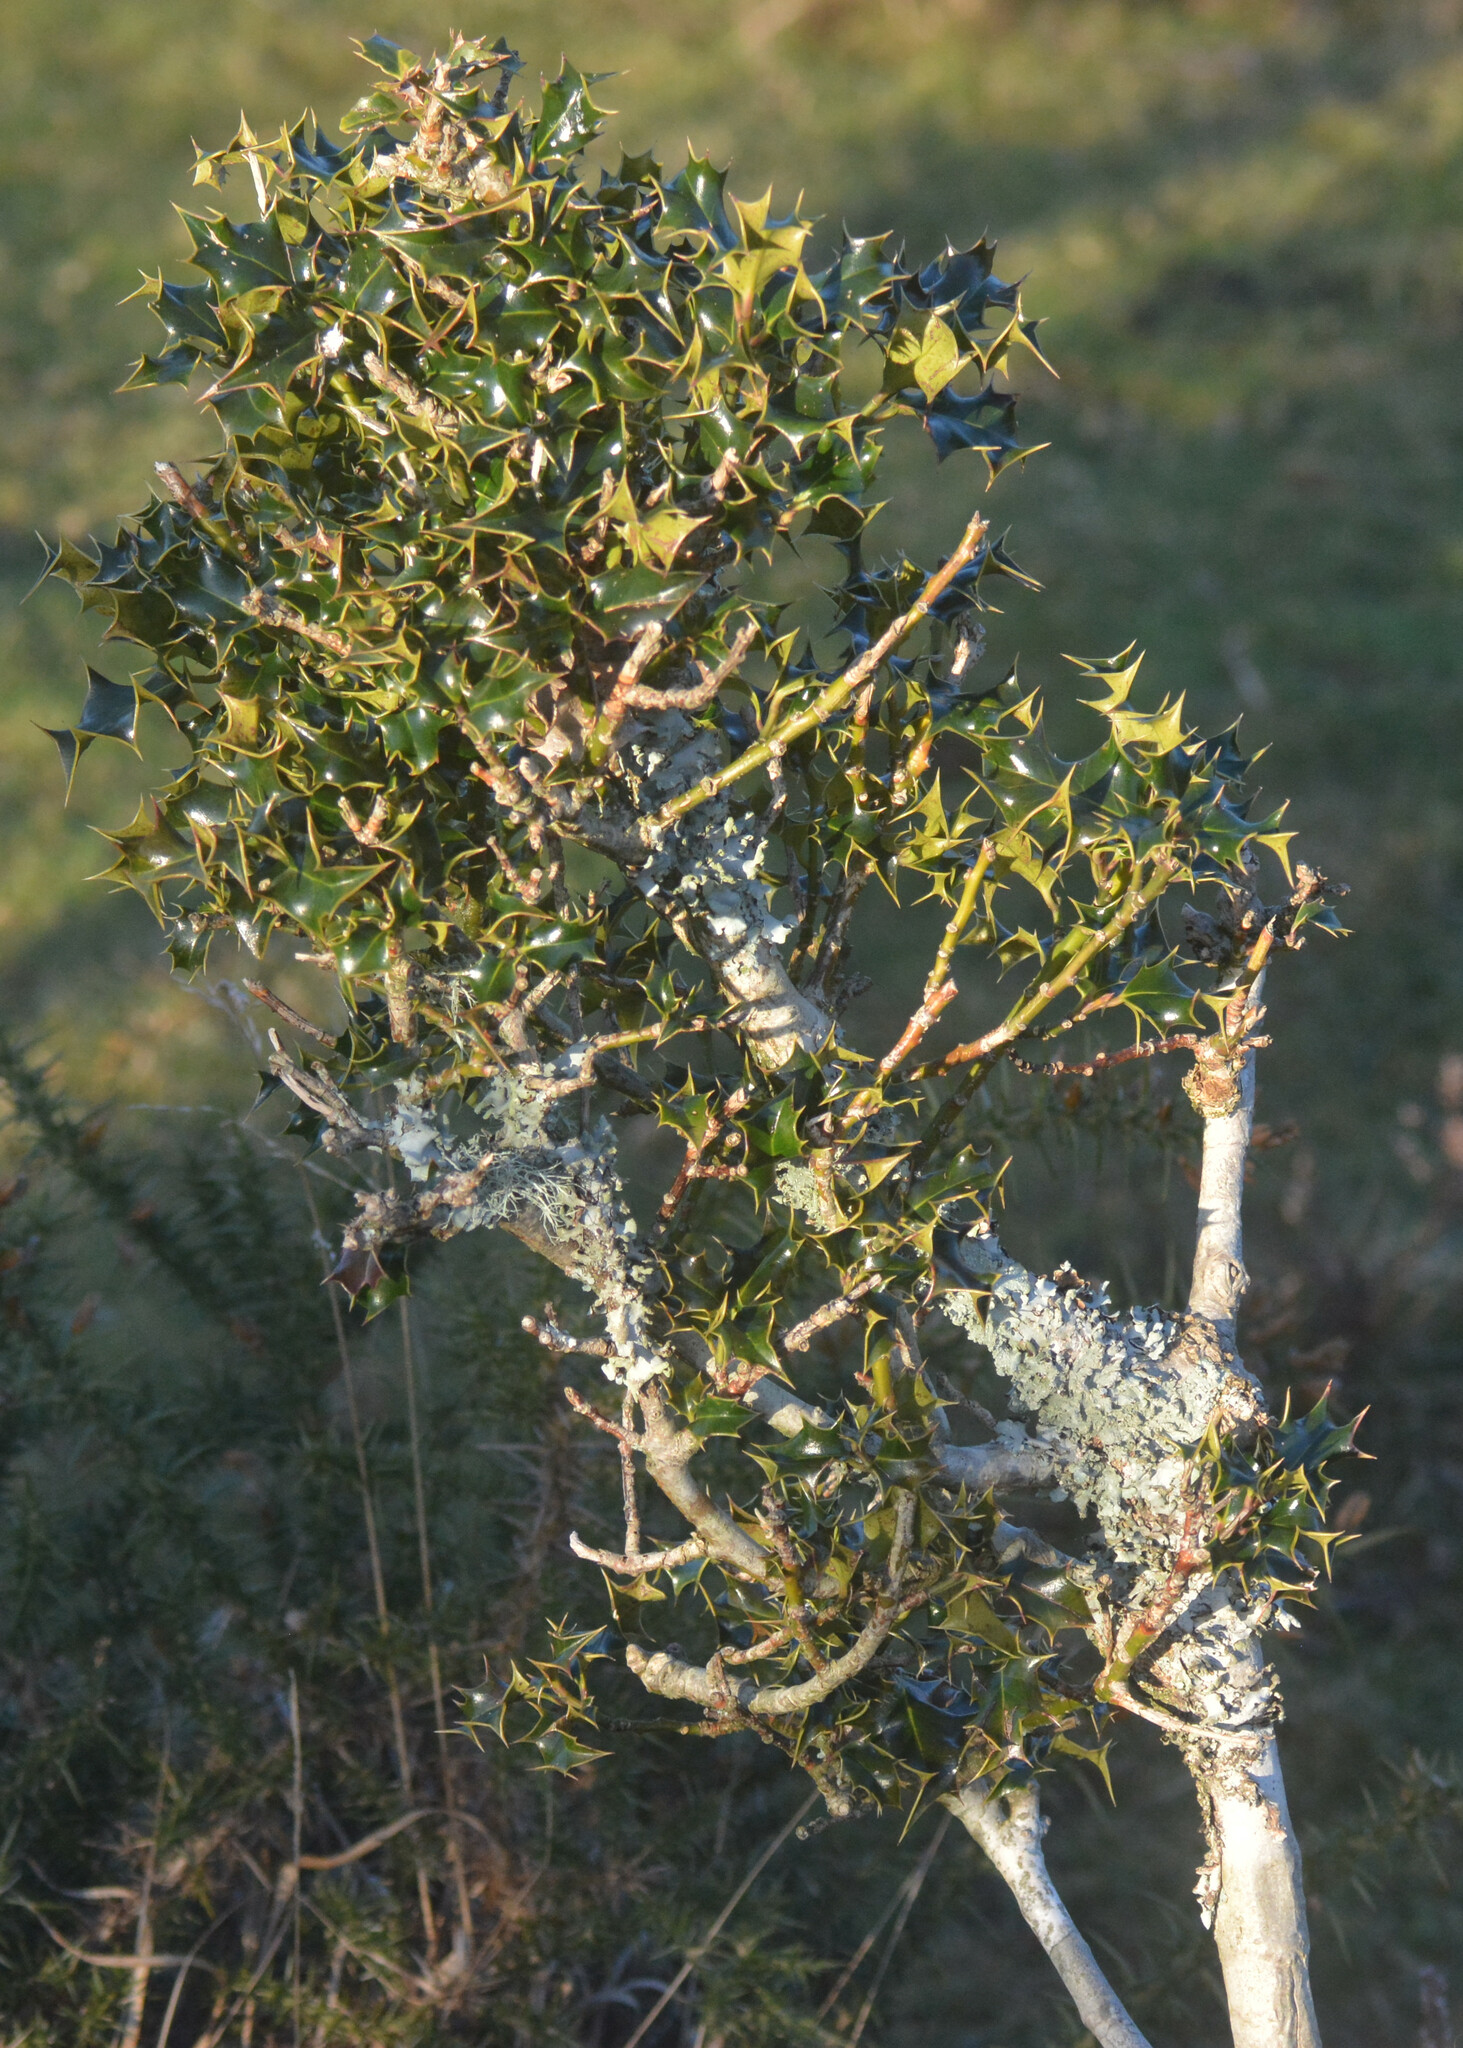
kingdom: Plantae
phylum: Tracheophyta
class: Magnoliopsida
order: Aquifoliales
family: Aquifoliaceae
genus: Ilex
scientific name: Ilex aquifolium
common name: English holly
